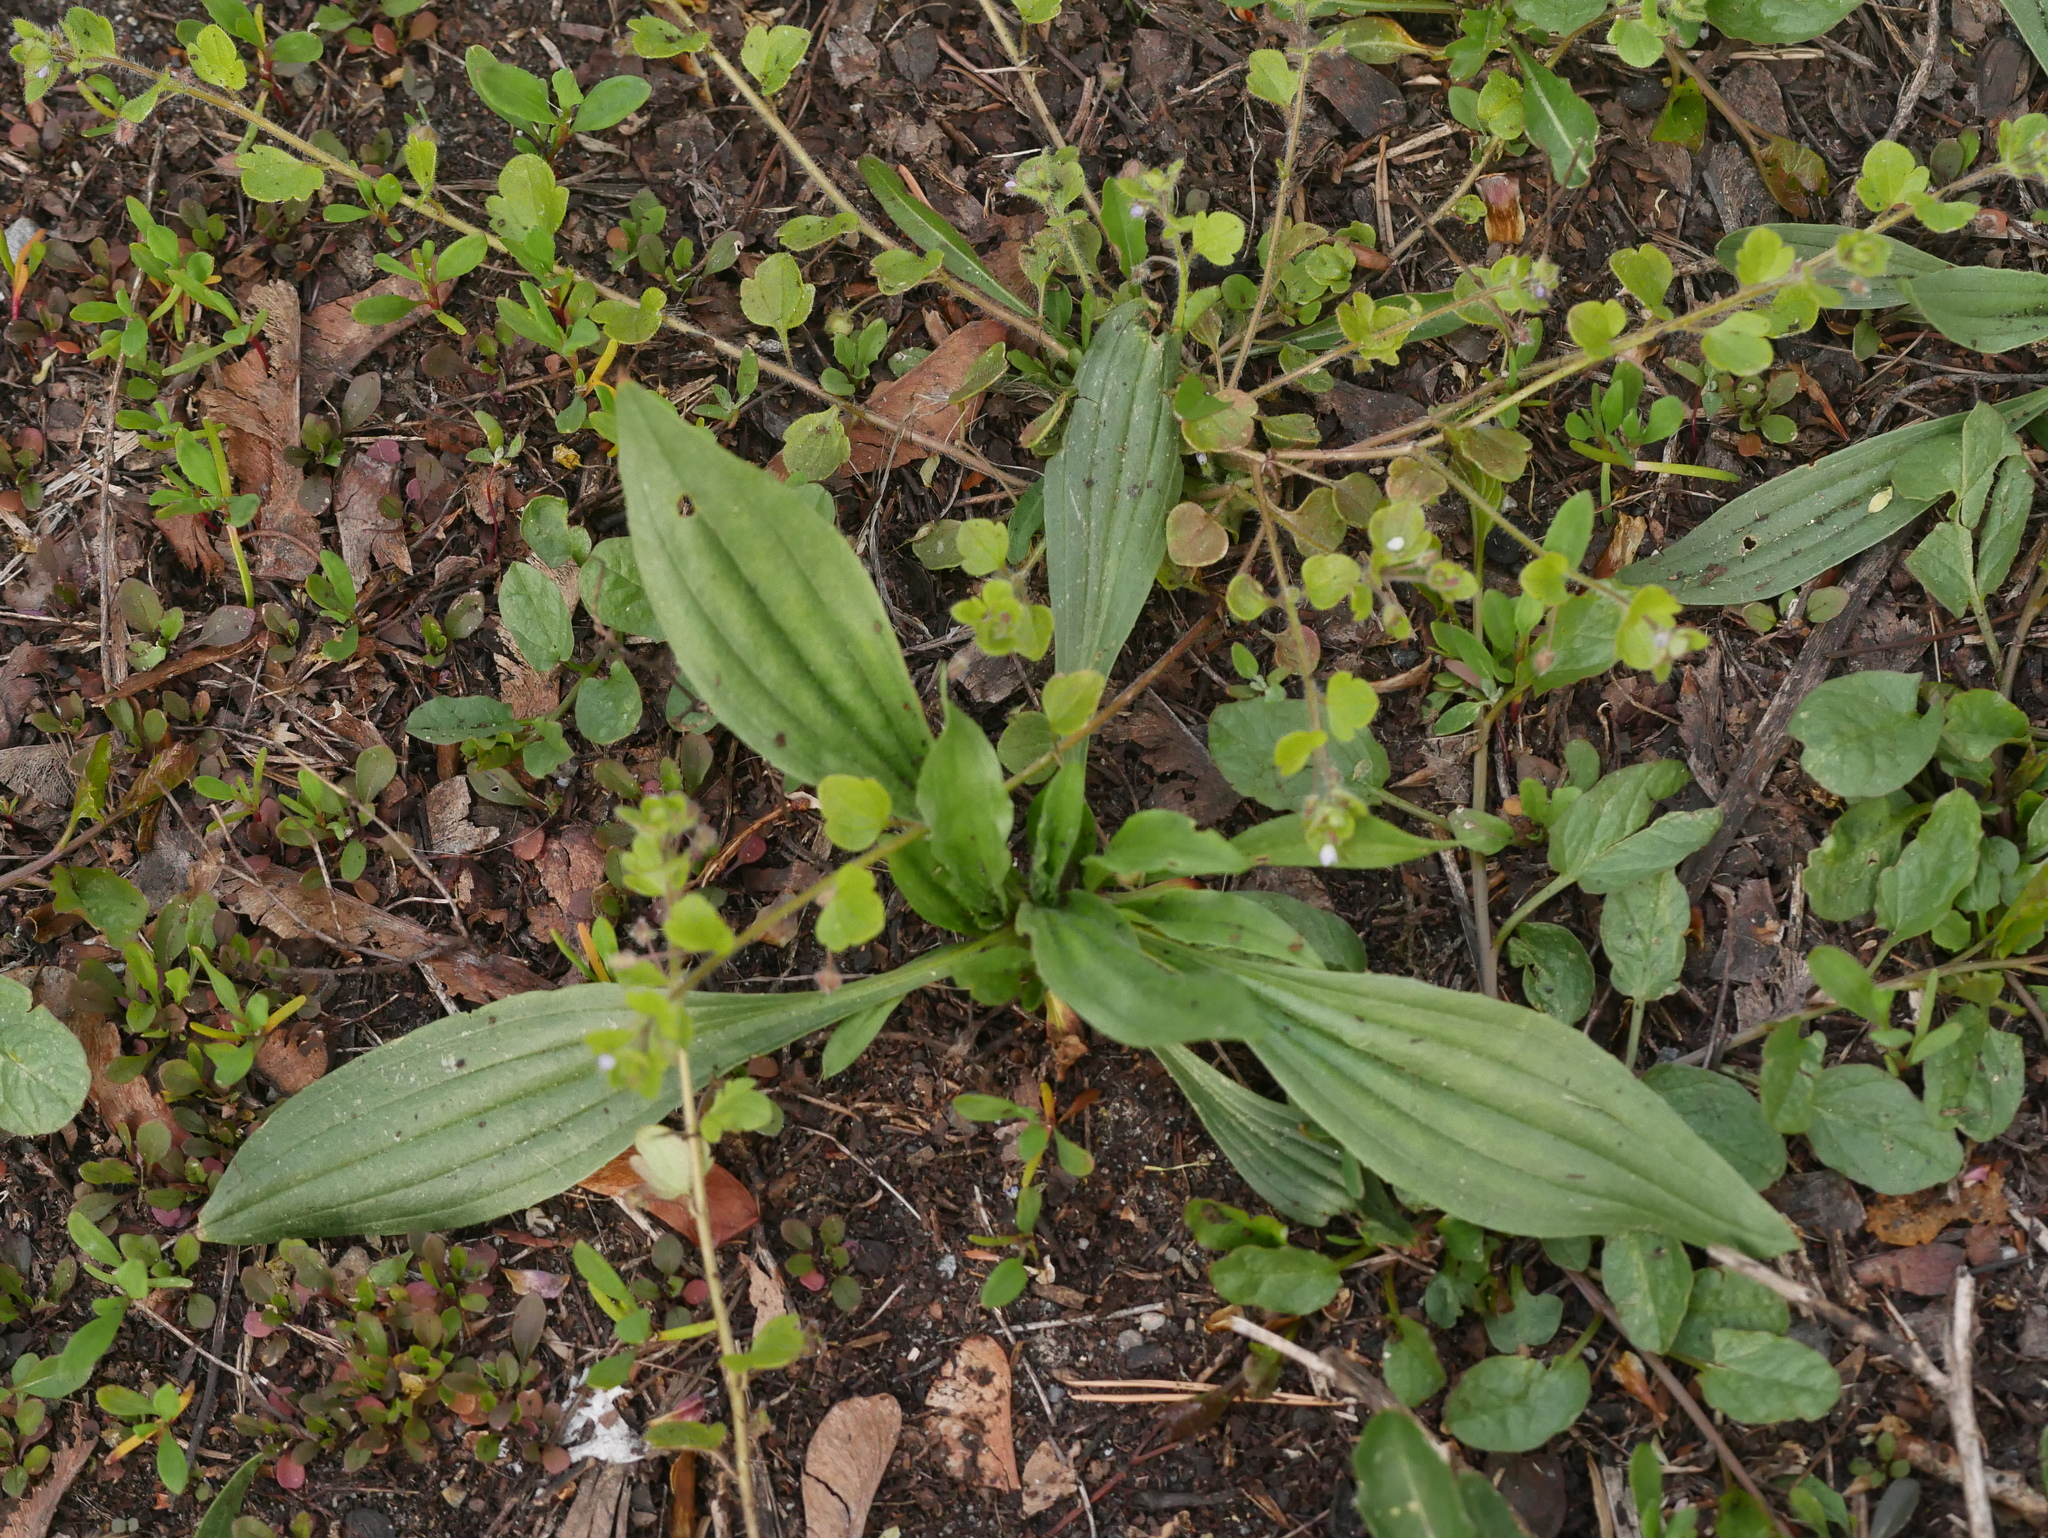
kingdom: Plantae
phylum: Tracheophyta
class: Magnoliopsida
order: Lamiales
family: Plantaginaceae
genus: Plantago
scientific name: Plantago lanceolata
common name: Ribwort plantain
